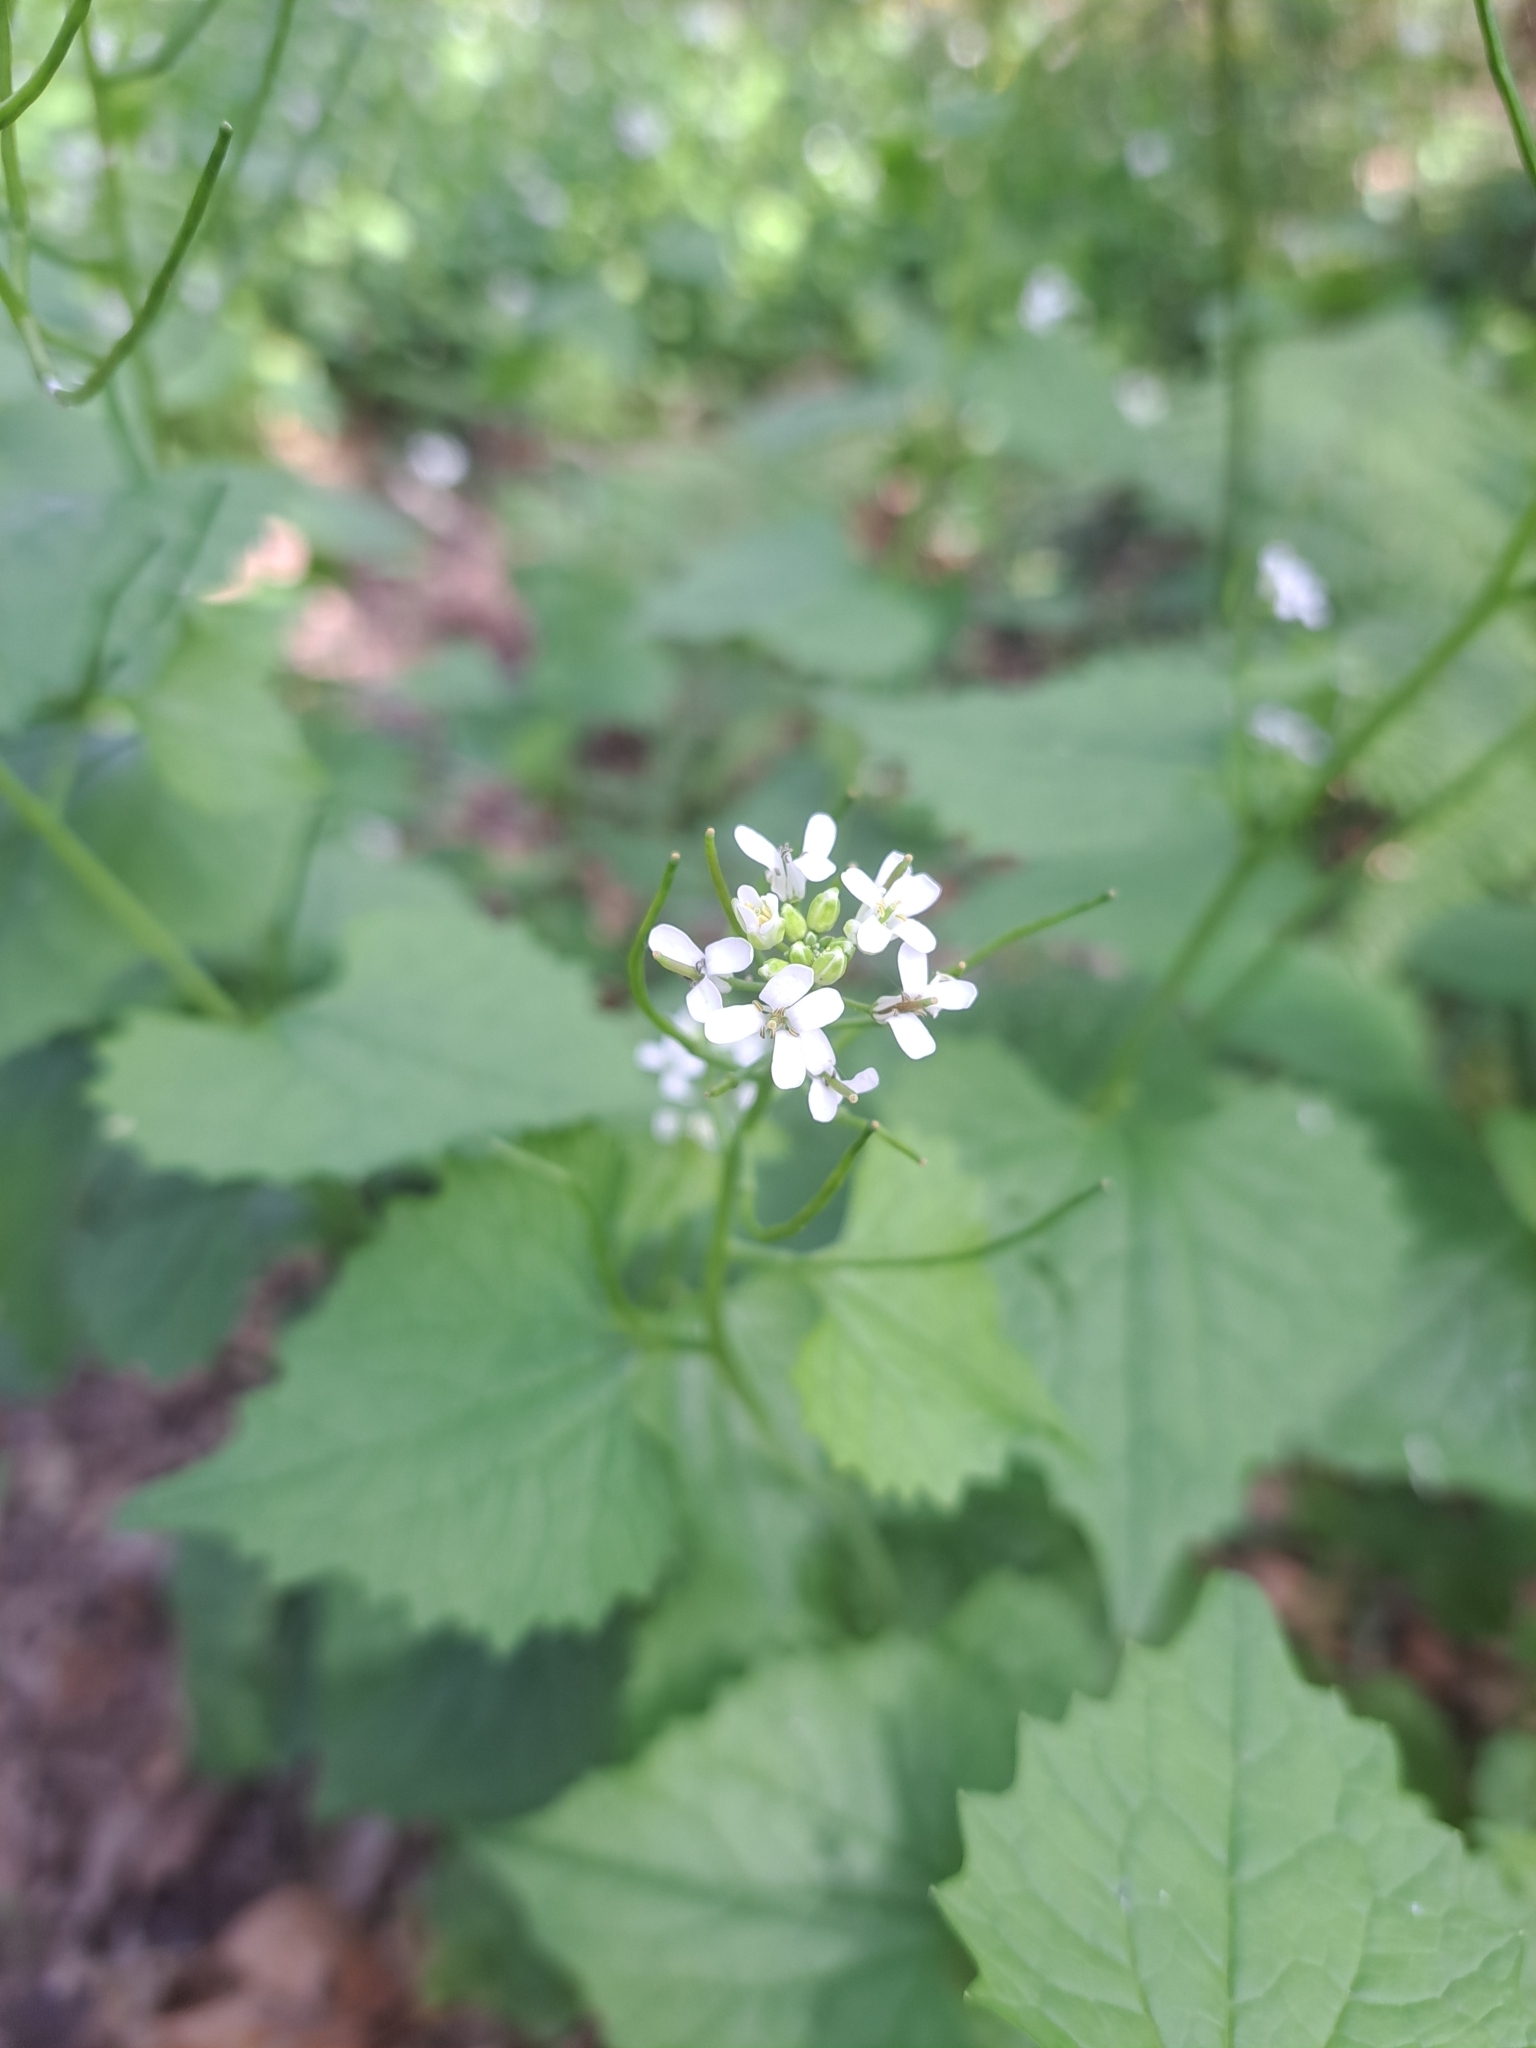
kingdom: Plantae
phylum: Tracheophyta
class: Magnoliopsida
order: Brassicales
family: Brassicaceae
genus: Alliaria
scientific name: Alliaria petiolata
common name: Garlic mustard
